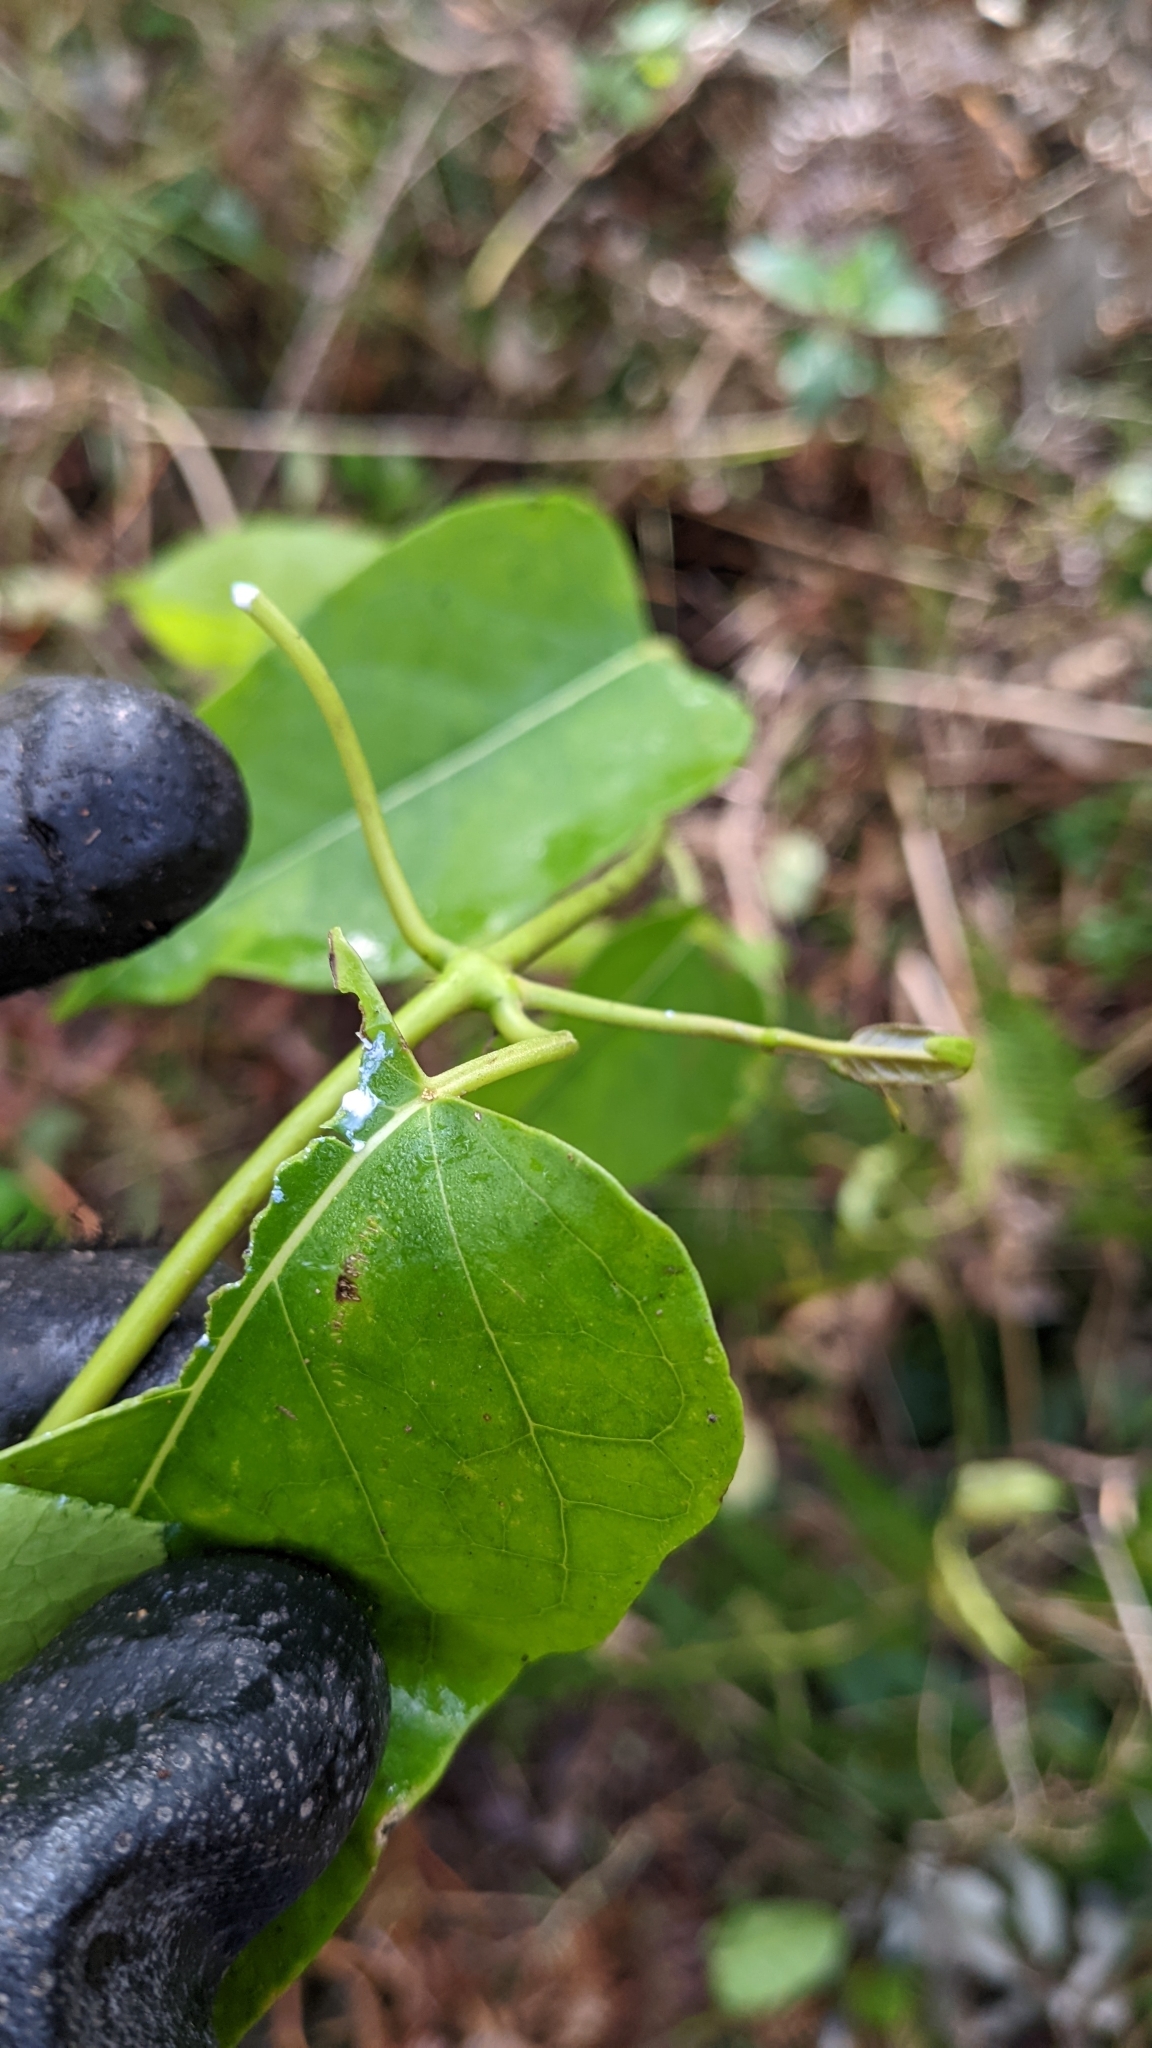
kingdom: Plantae
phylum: Tracheophyta
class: Magnoliopsida
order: Gentianales
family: Apocynaceae
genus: Leichhardtia
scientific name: Leichhardtia rostrata
